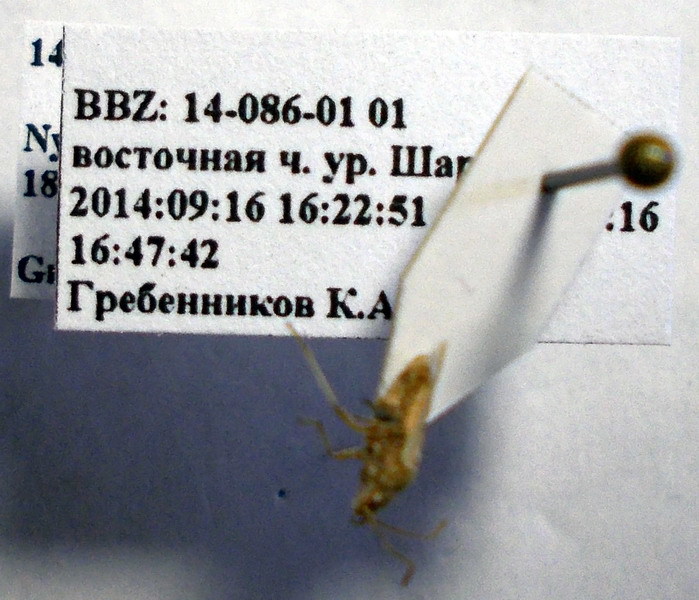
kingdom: Animalia
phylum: Arthropoda
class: Insecta
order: Hemiptera
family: Lygaeidae
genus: Nysius
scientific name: Nysius helveticus
